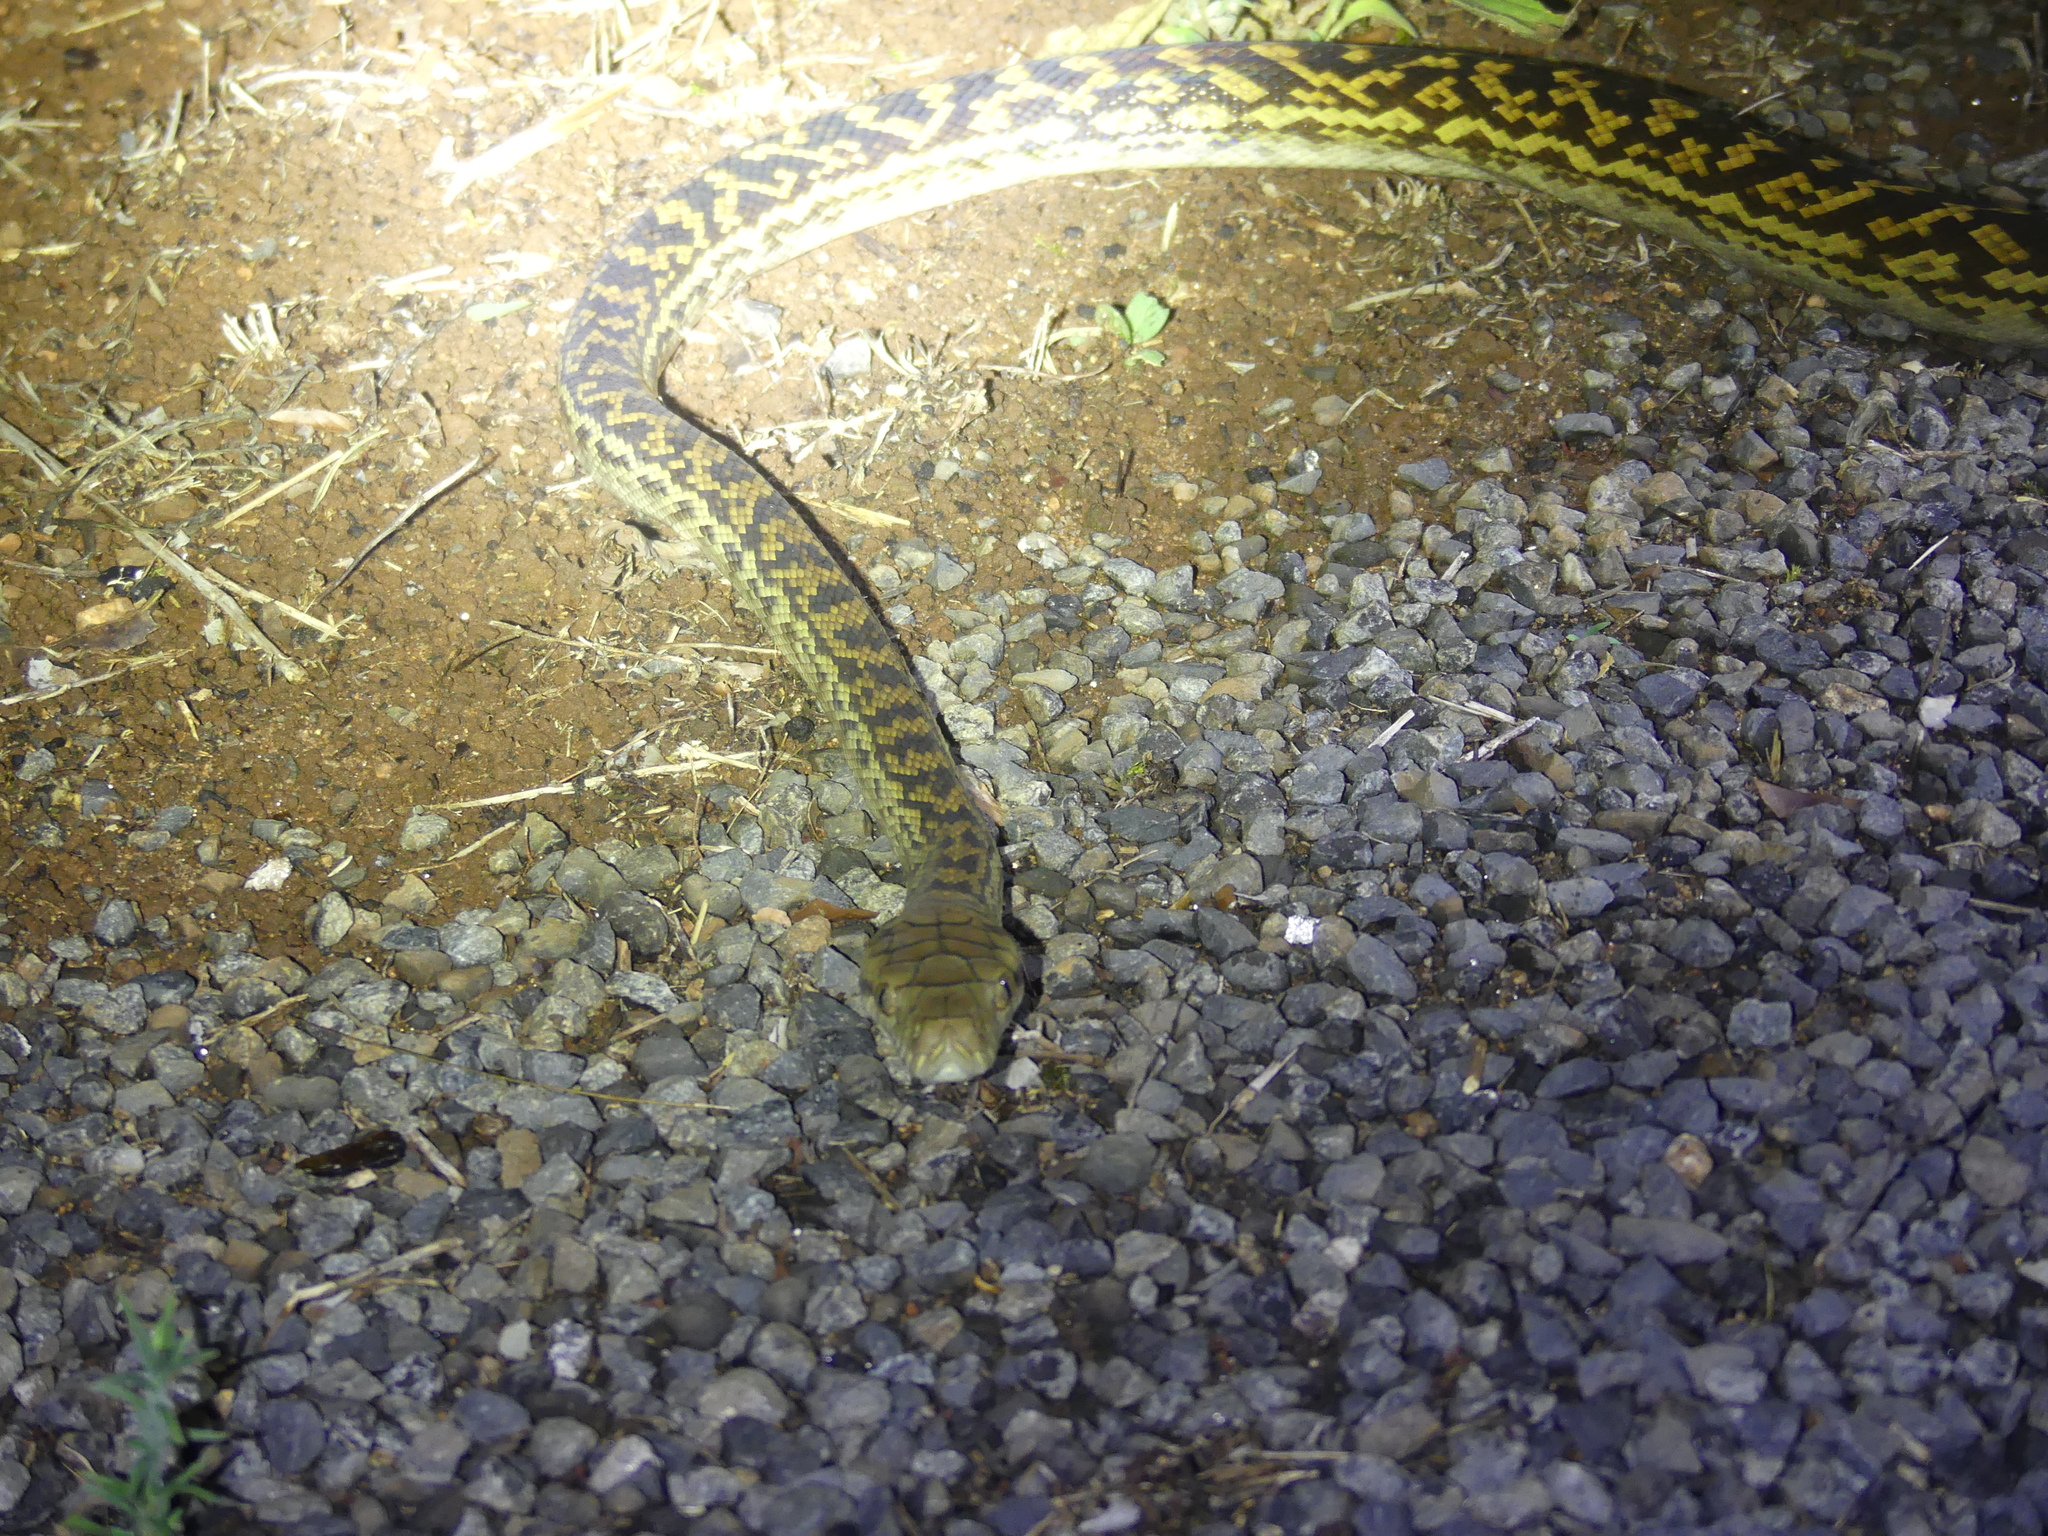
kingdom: Animalia
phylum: Chordata
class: Squamata
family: Pythonidae
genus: Simalia
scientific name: Simalia kinghorni
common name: Scrub python
